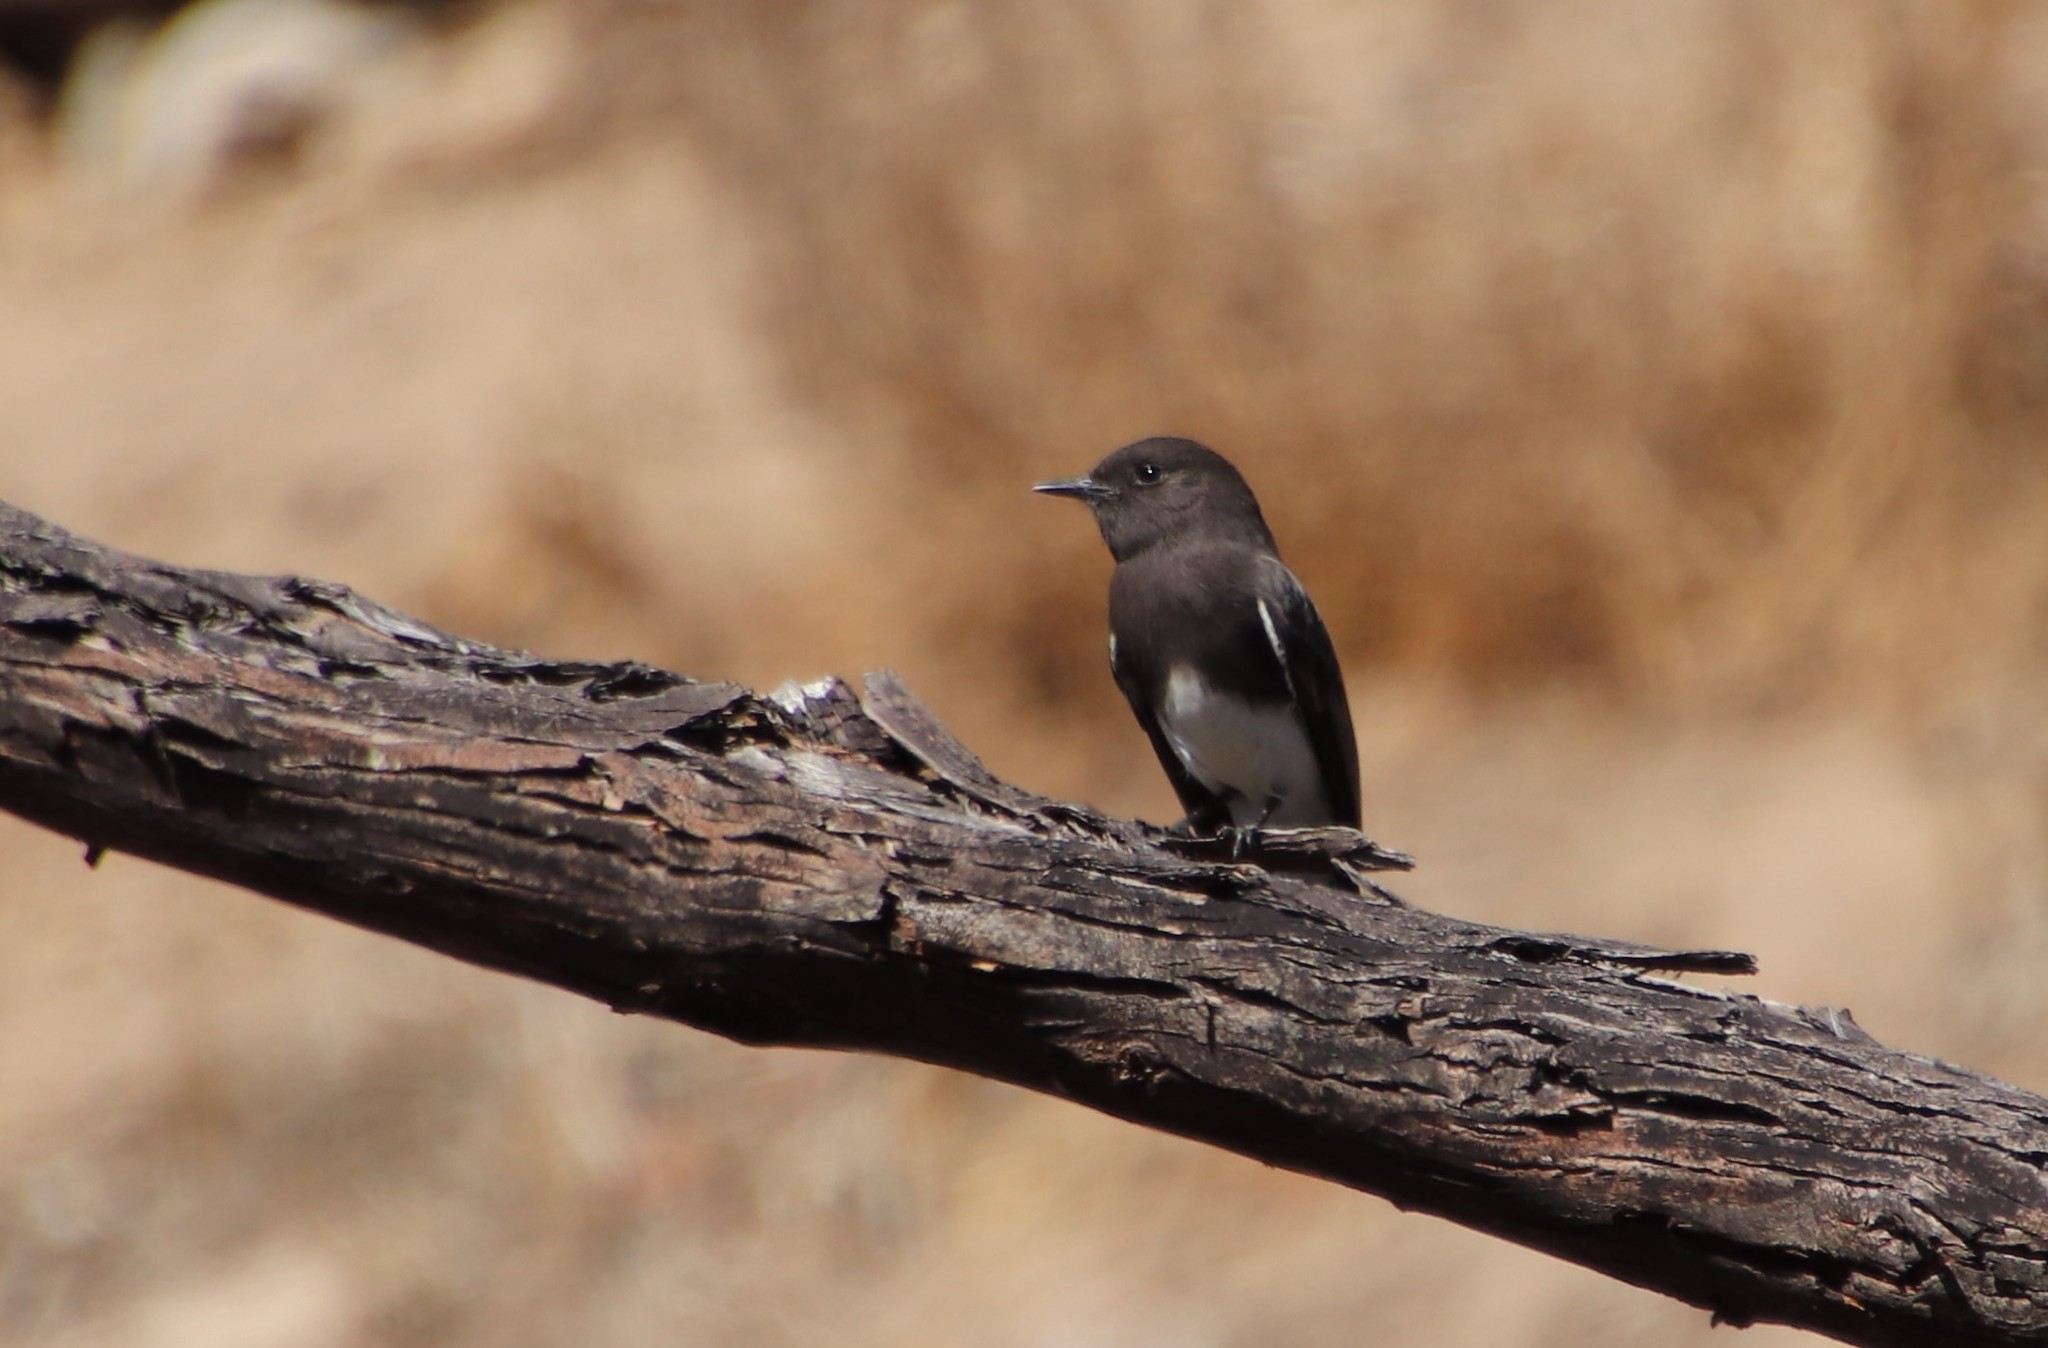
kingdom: Animalia
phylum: Chordata
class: Aves
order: Passeriformes
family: Tyrannidae
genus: Sayornis
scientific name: Sayornis nigricans
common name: Black phoebe
